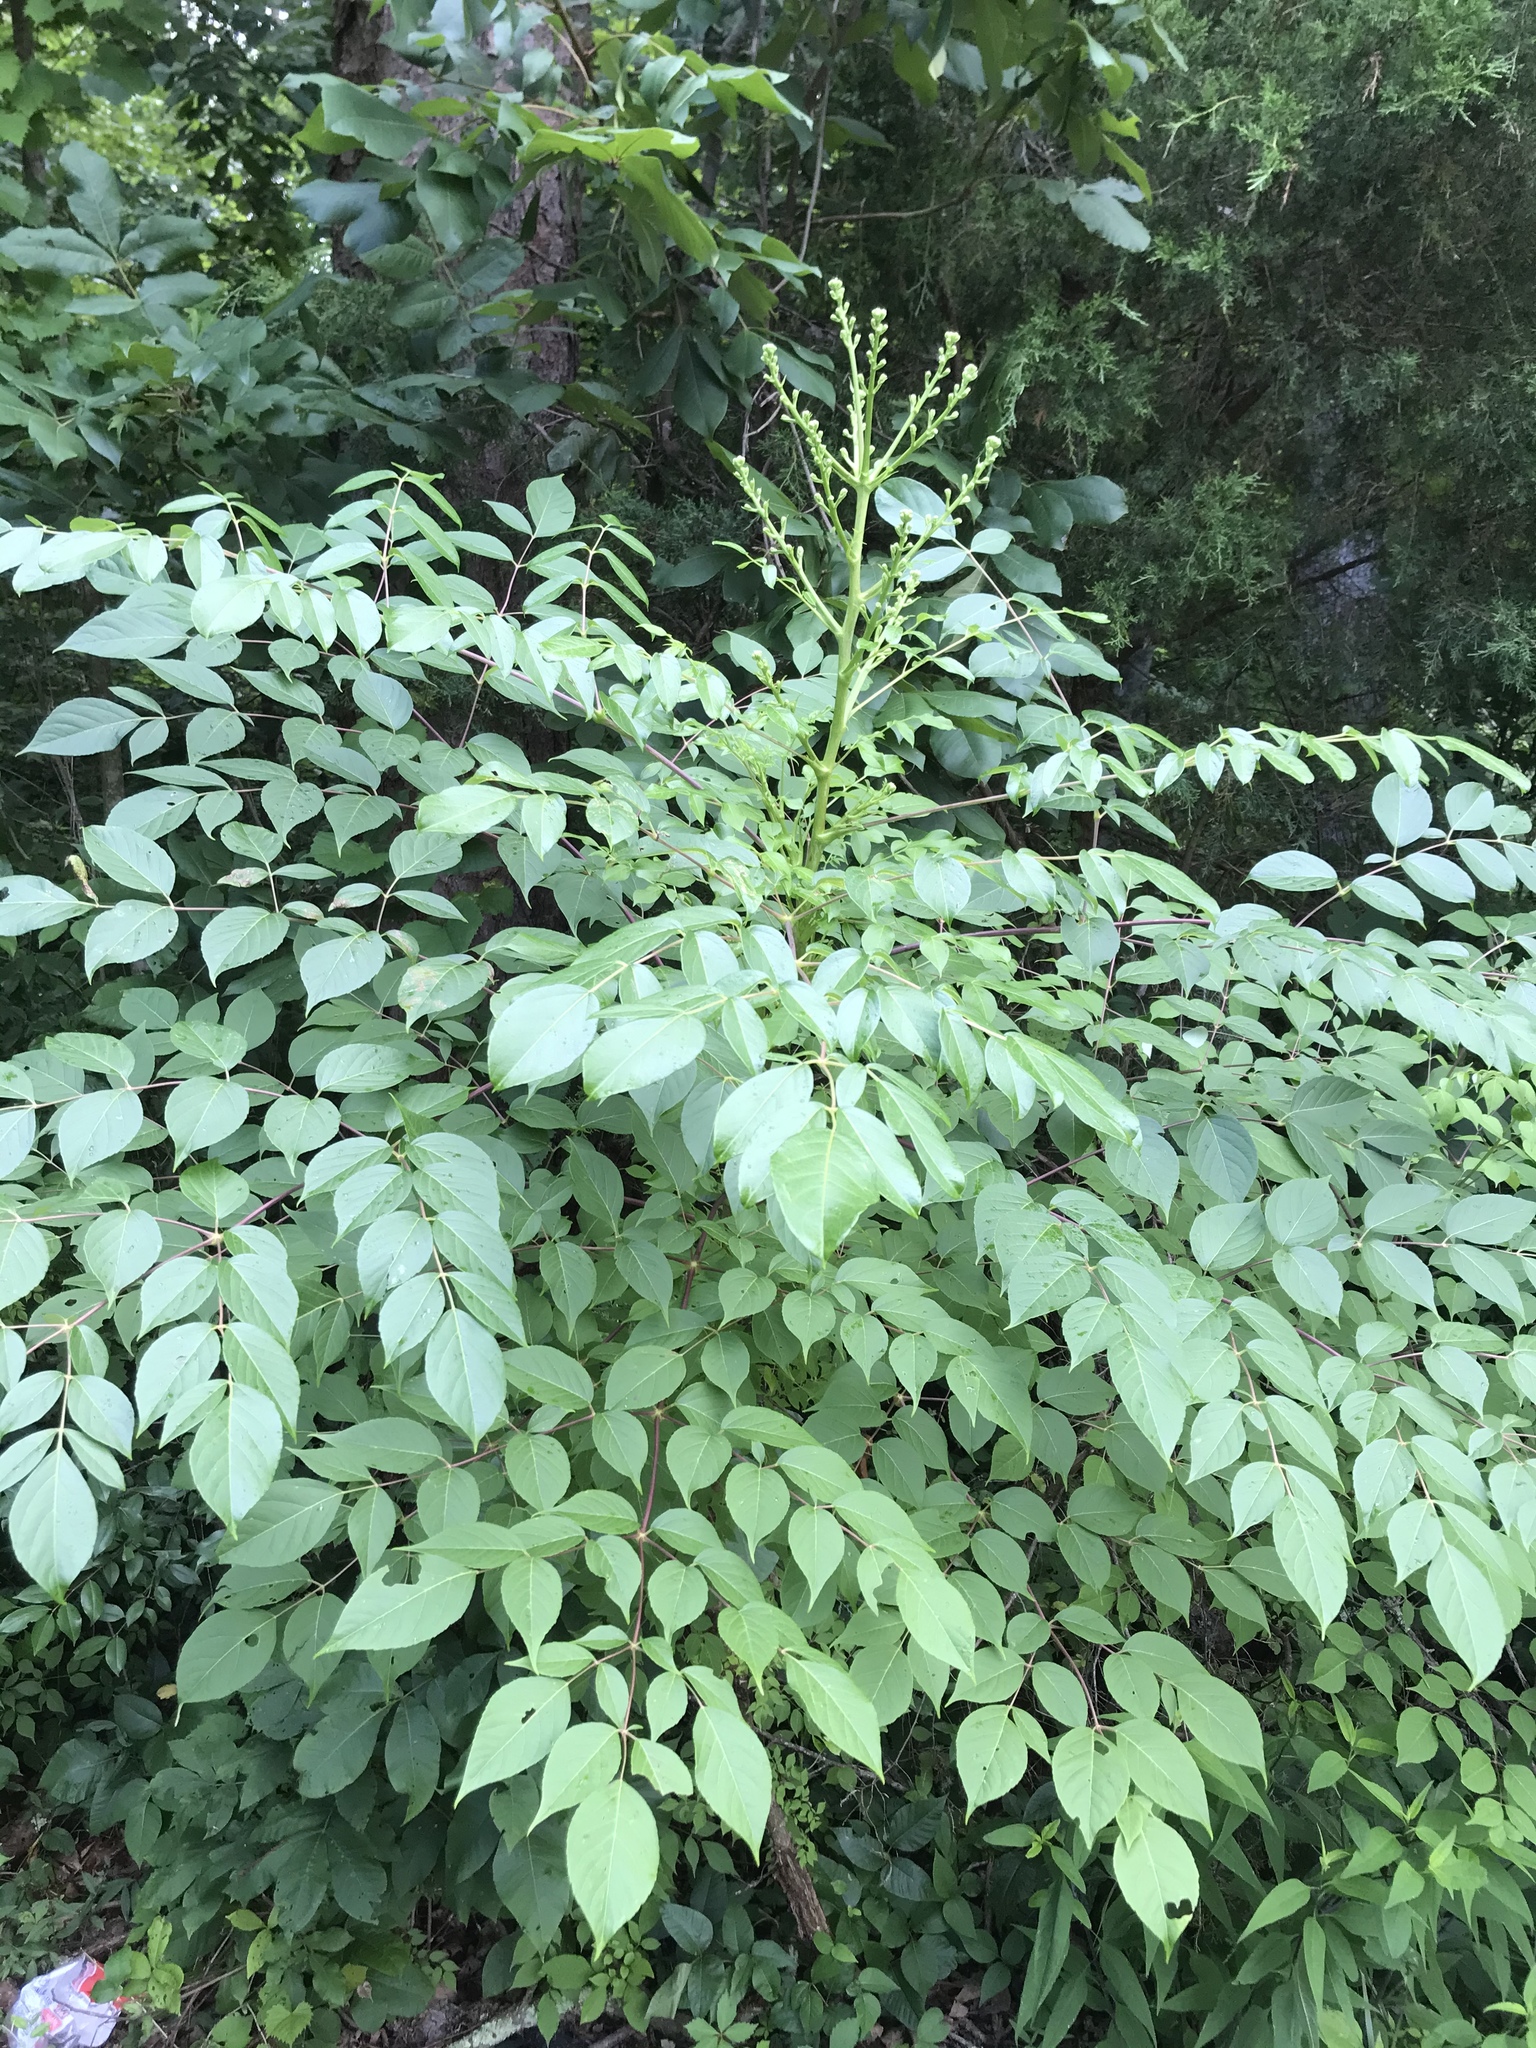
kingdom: Plantae
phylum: Tracheophyta
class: Magnoliopsida
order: Apiales
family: Araliaceae
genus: Aralia
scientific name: Aralia spinosa
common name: Hercules'-club
